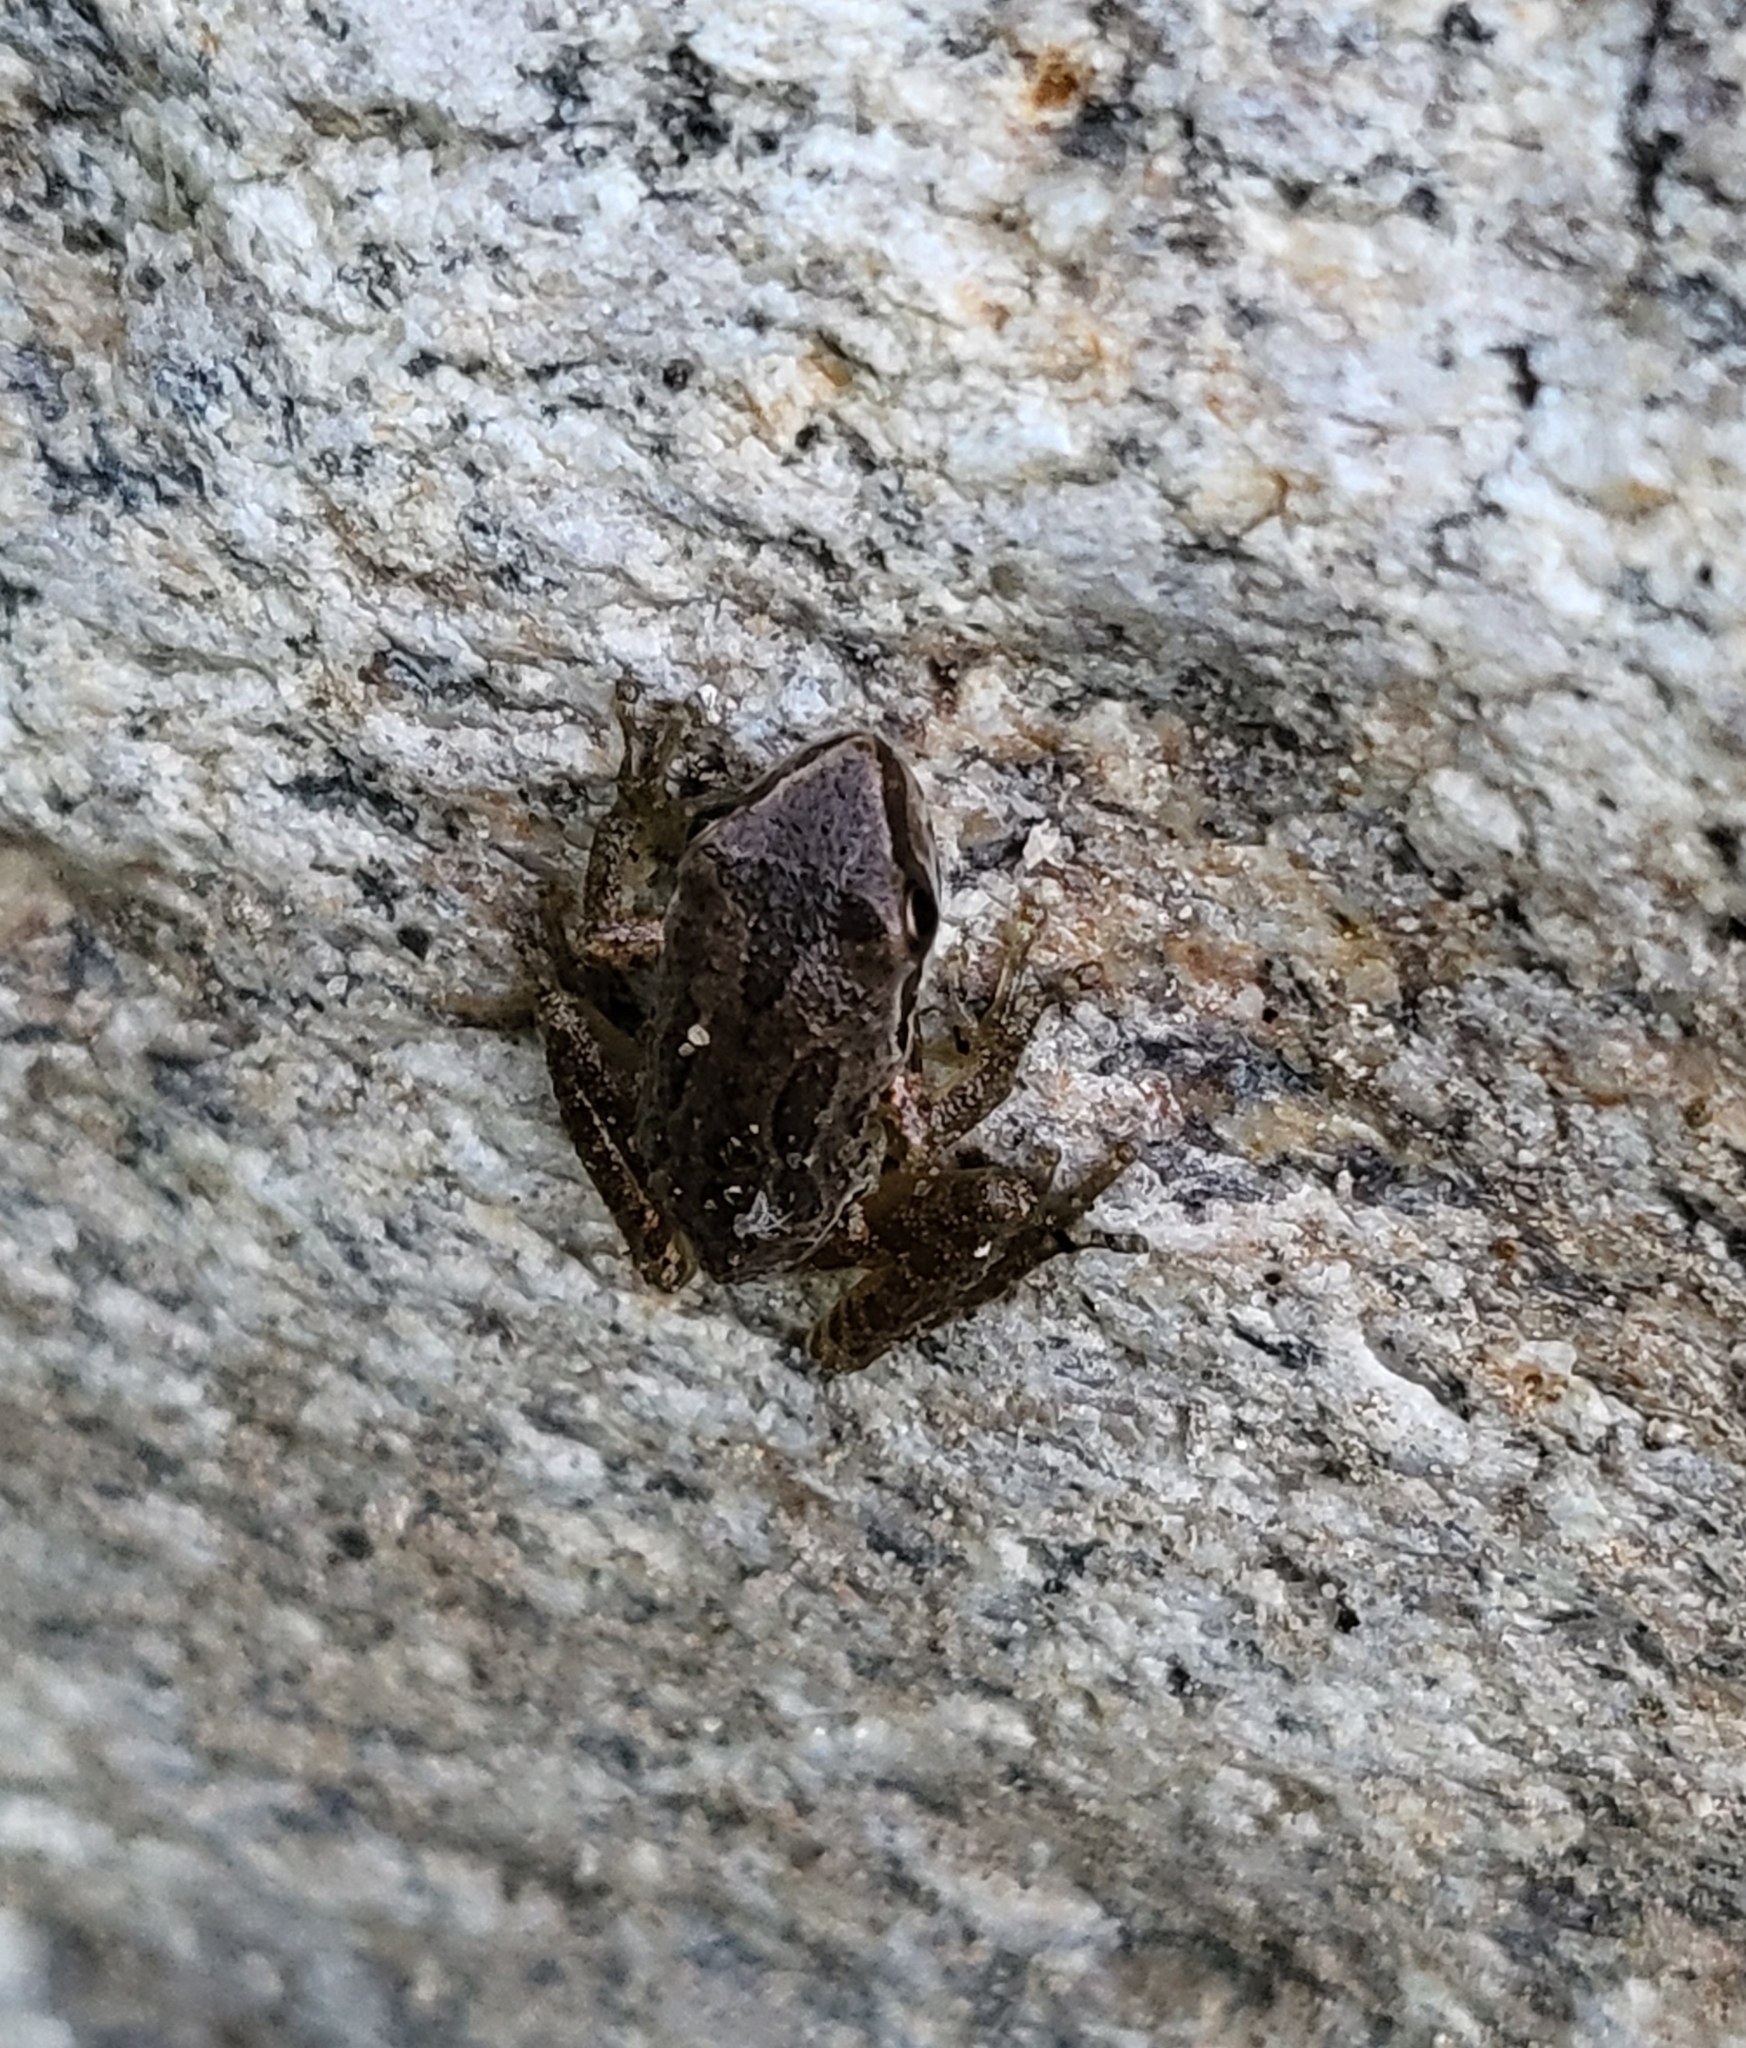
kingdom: Animalia
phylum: Chordata
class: Amphibia
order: Anura
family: Hylidae
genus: Pseudacris
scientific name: Pseudacris regilla
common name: Pacific chorus frog
